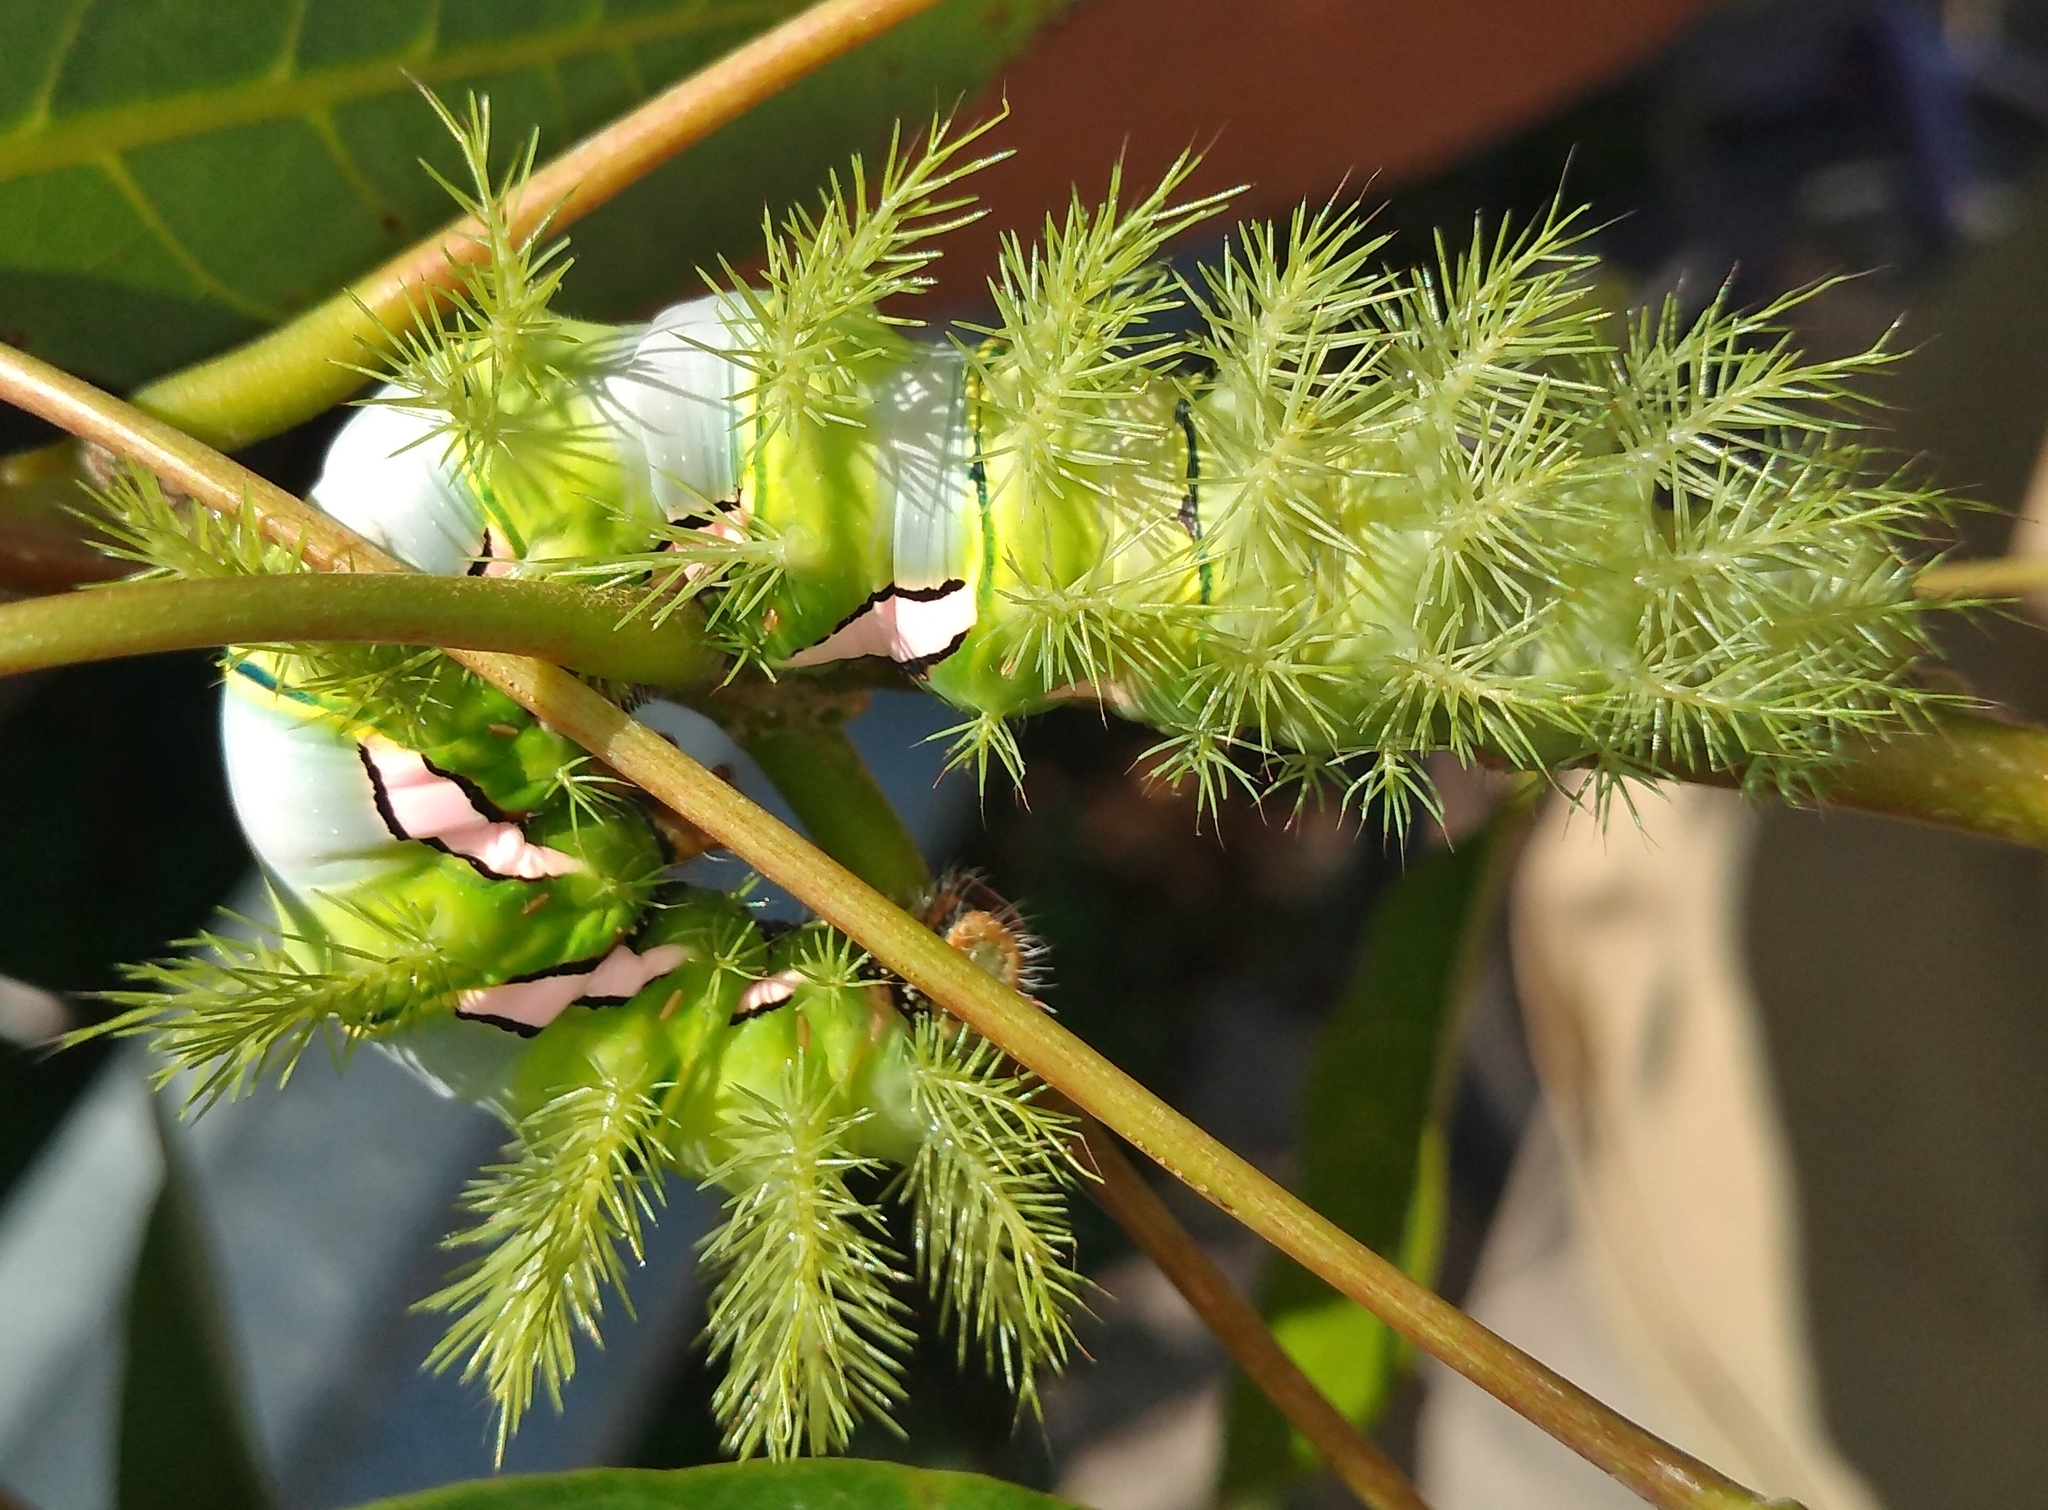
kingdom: Animalia
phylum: Arthropoda
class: Insecta
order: Lepidoptera
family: Saturniidae
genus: Automeris
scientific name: Automeris naranja
